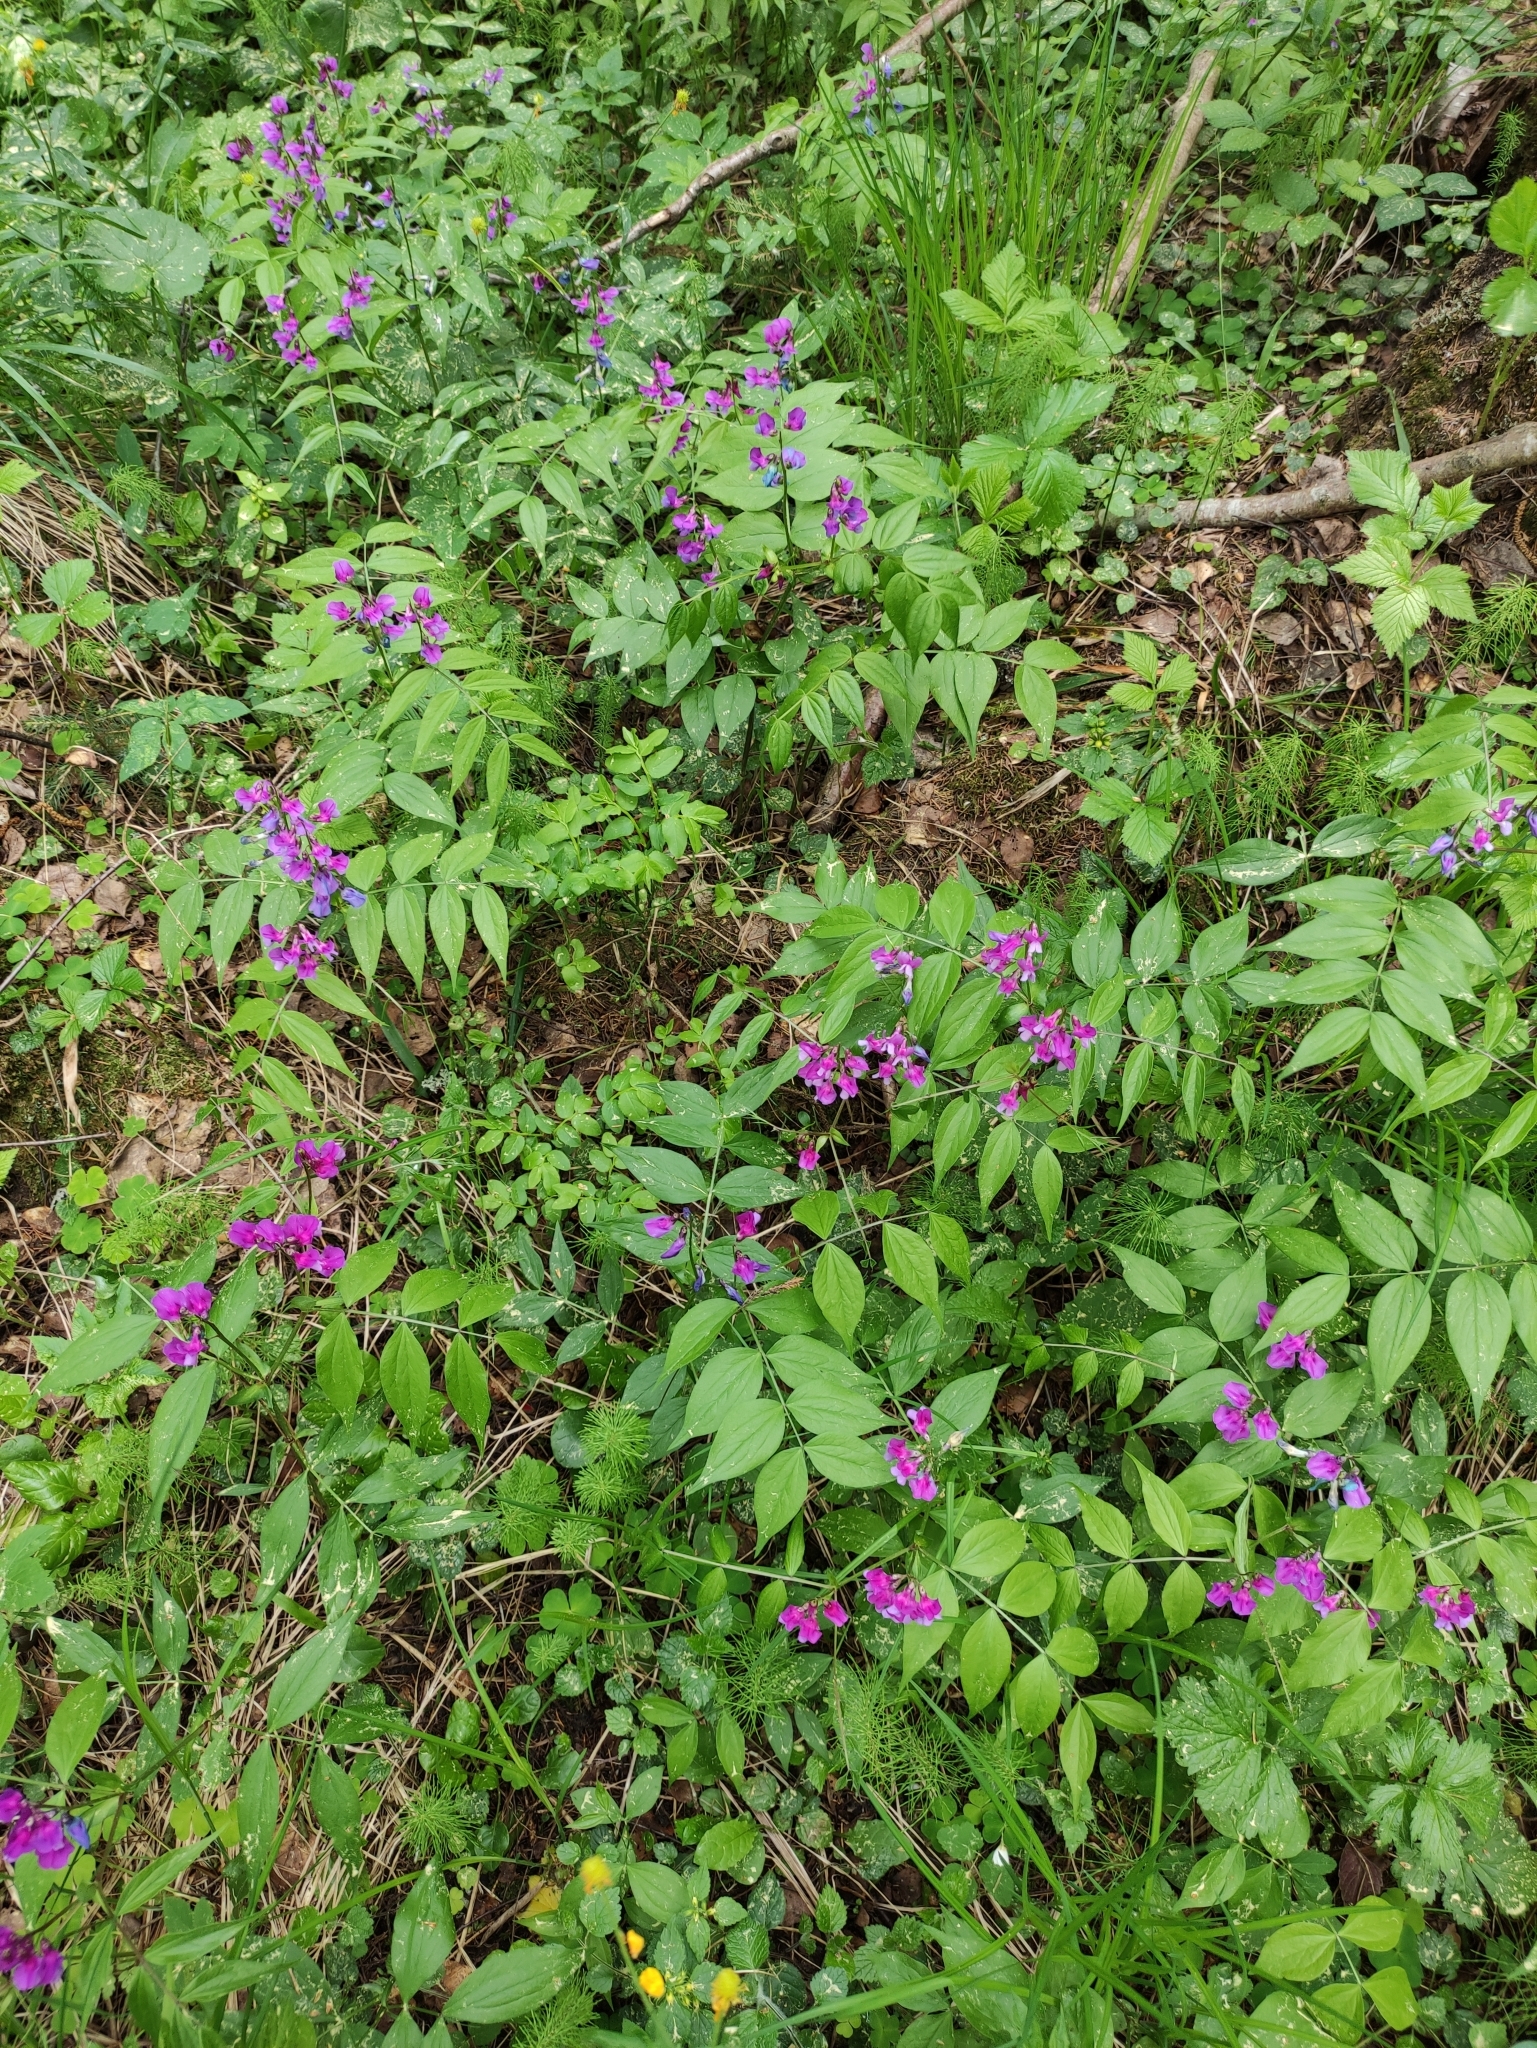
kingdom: Plantae
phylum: Tracheophyta
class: Magnoliopsida
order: Fabales
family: Fabaceae
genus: Lathyrus
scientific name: Lathyrus vernus
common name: Spring pea
